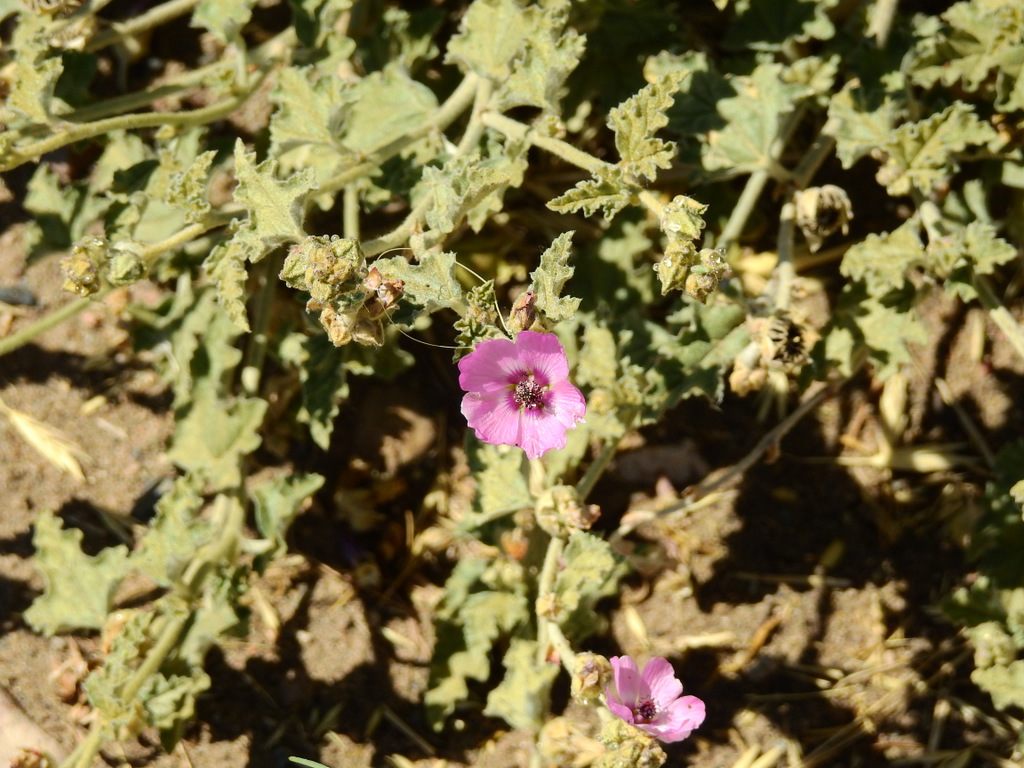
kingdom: Plantae
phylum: Tracheophyta
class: Magnoliopsida
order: Malvales
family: Malvaceae
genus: Sphaeralcea
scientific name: Sphaeralcea mendocina
